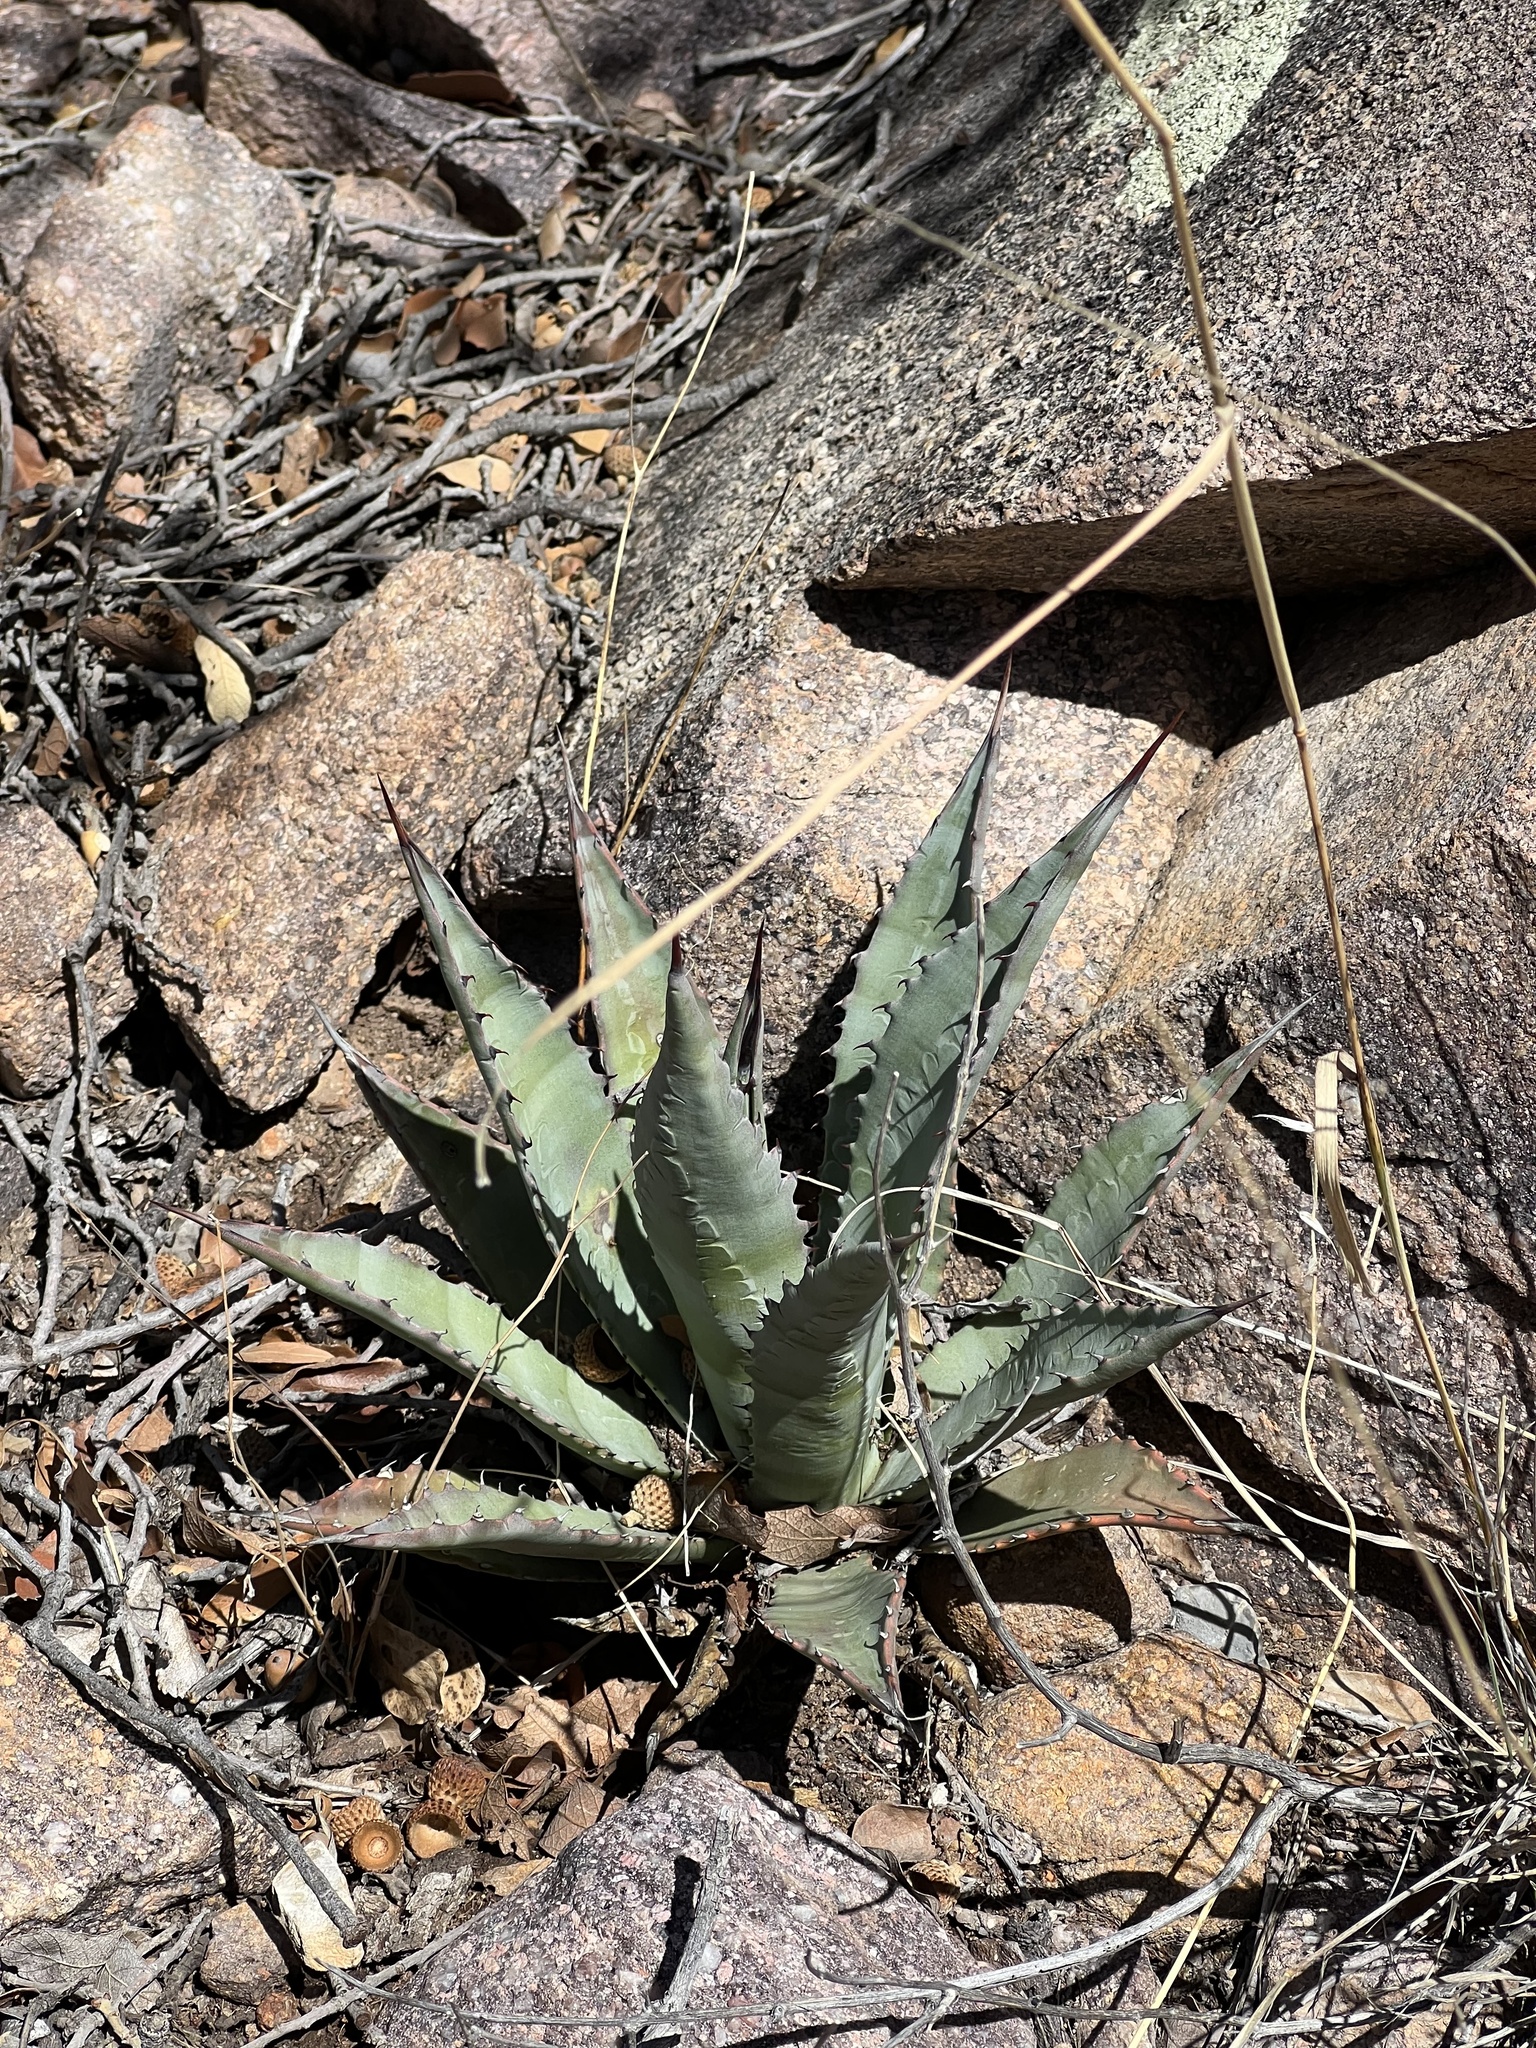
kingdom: Plantae
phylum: Tracheophyta
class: Liliopsida
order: Asparagales
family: Asparagaceae
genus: Agave
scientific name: Agave palmeri
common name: Palmer agave
